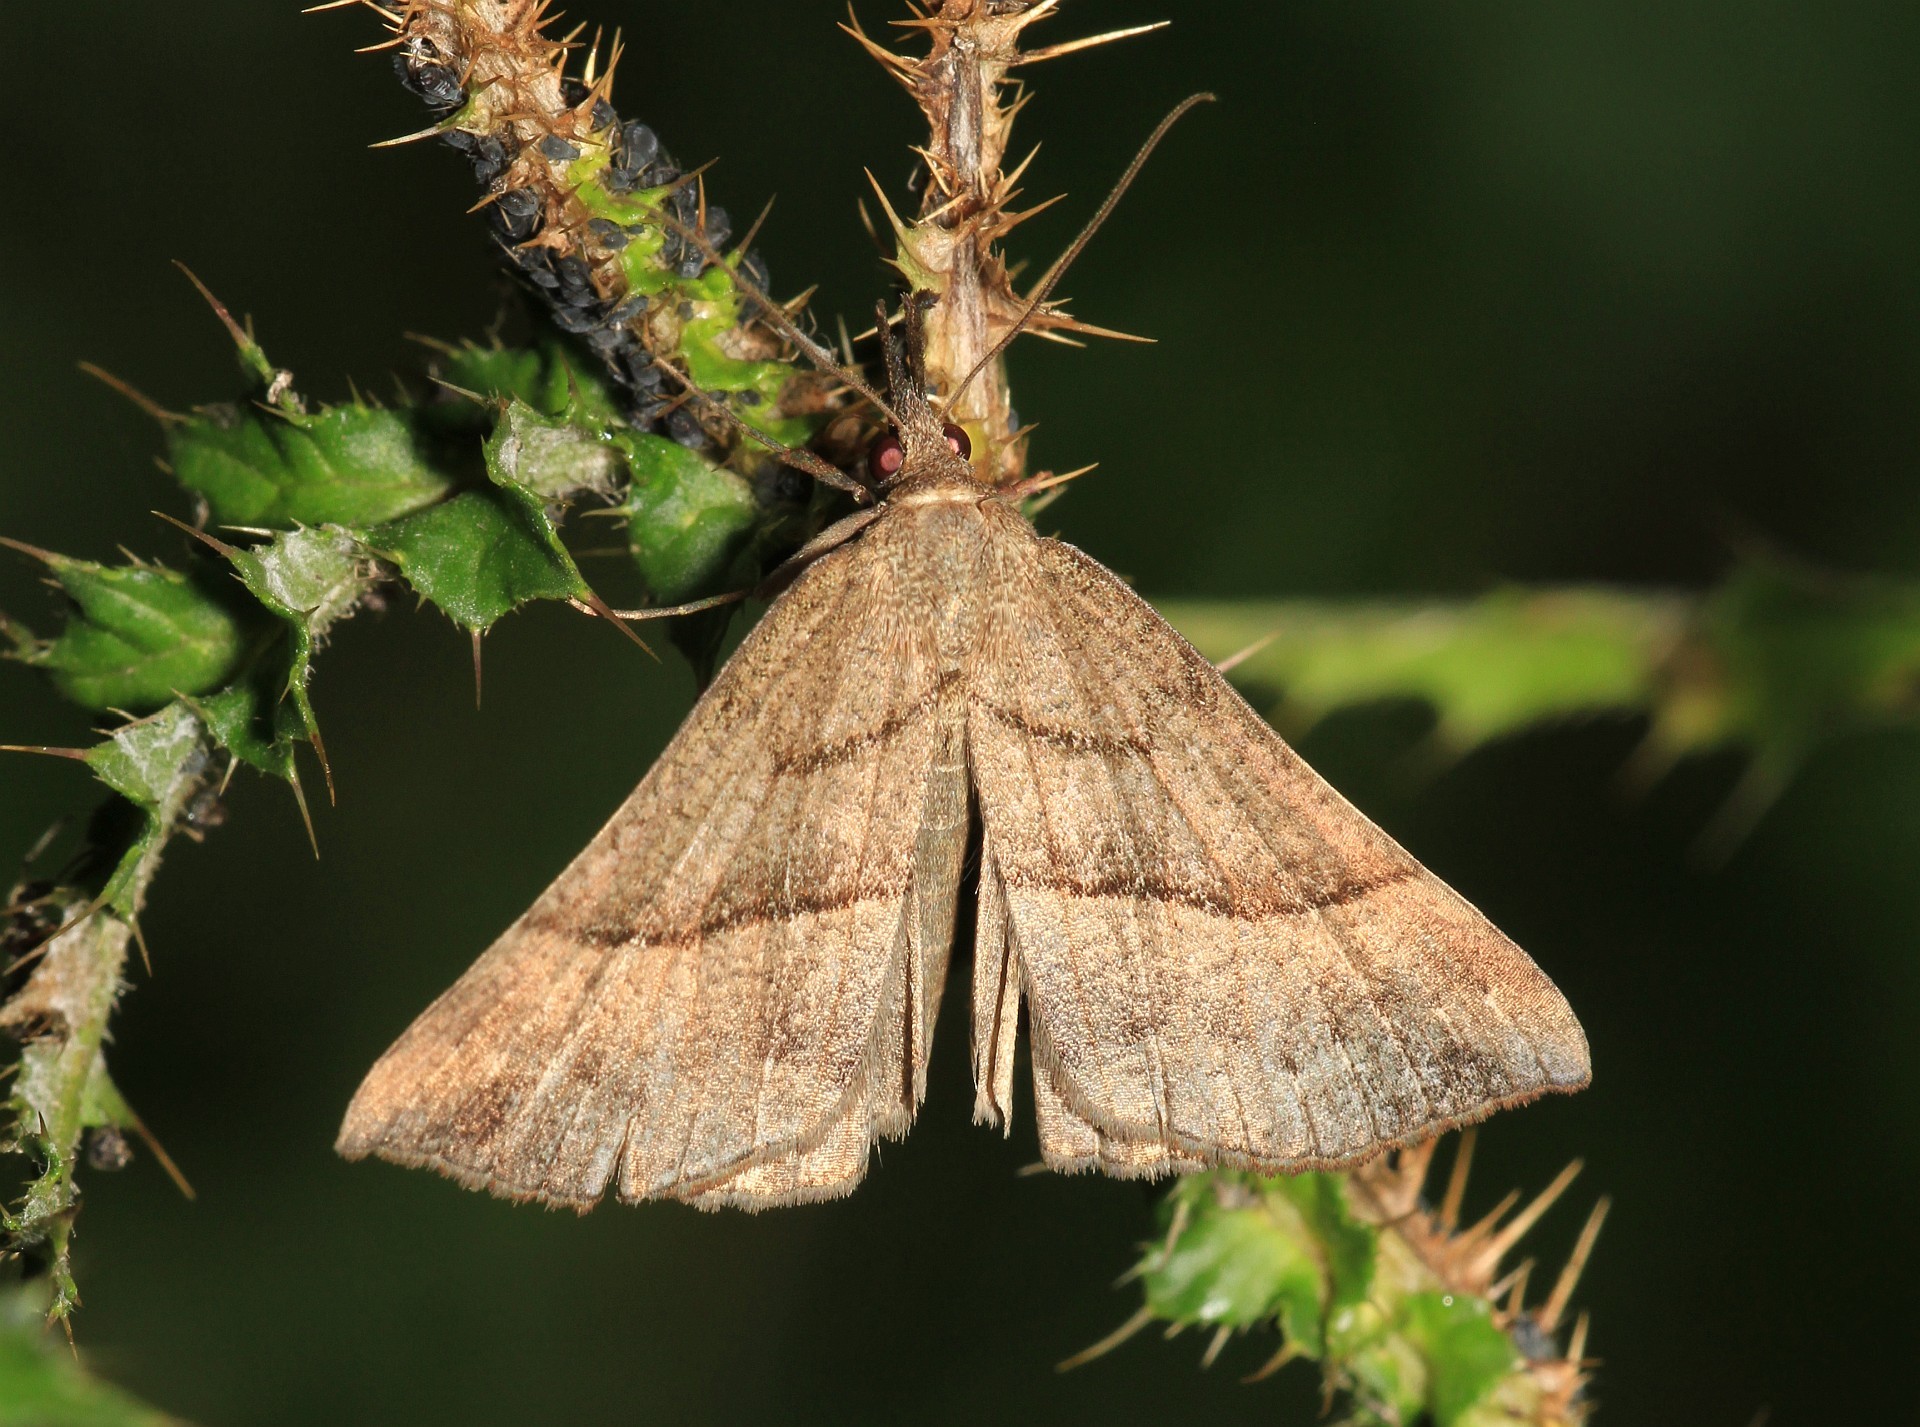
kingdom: Animalia
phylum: Arthropoda
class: Insecta
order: Lepidoptera
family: Erebidae
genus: Hypena
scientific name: Hypena proboscidalis
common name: Snout
